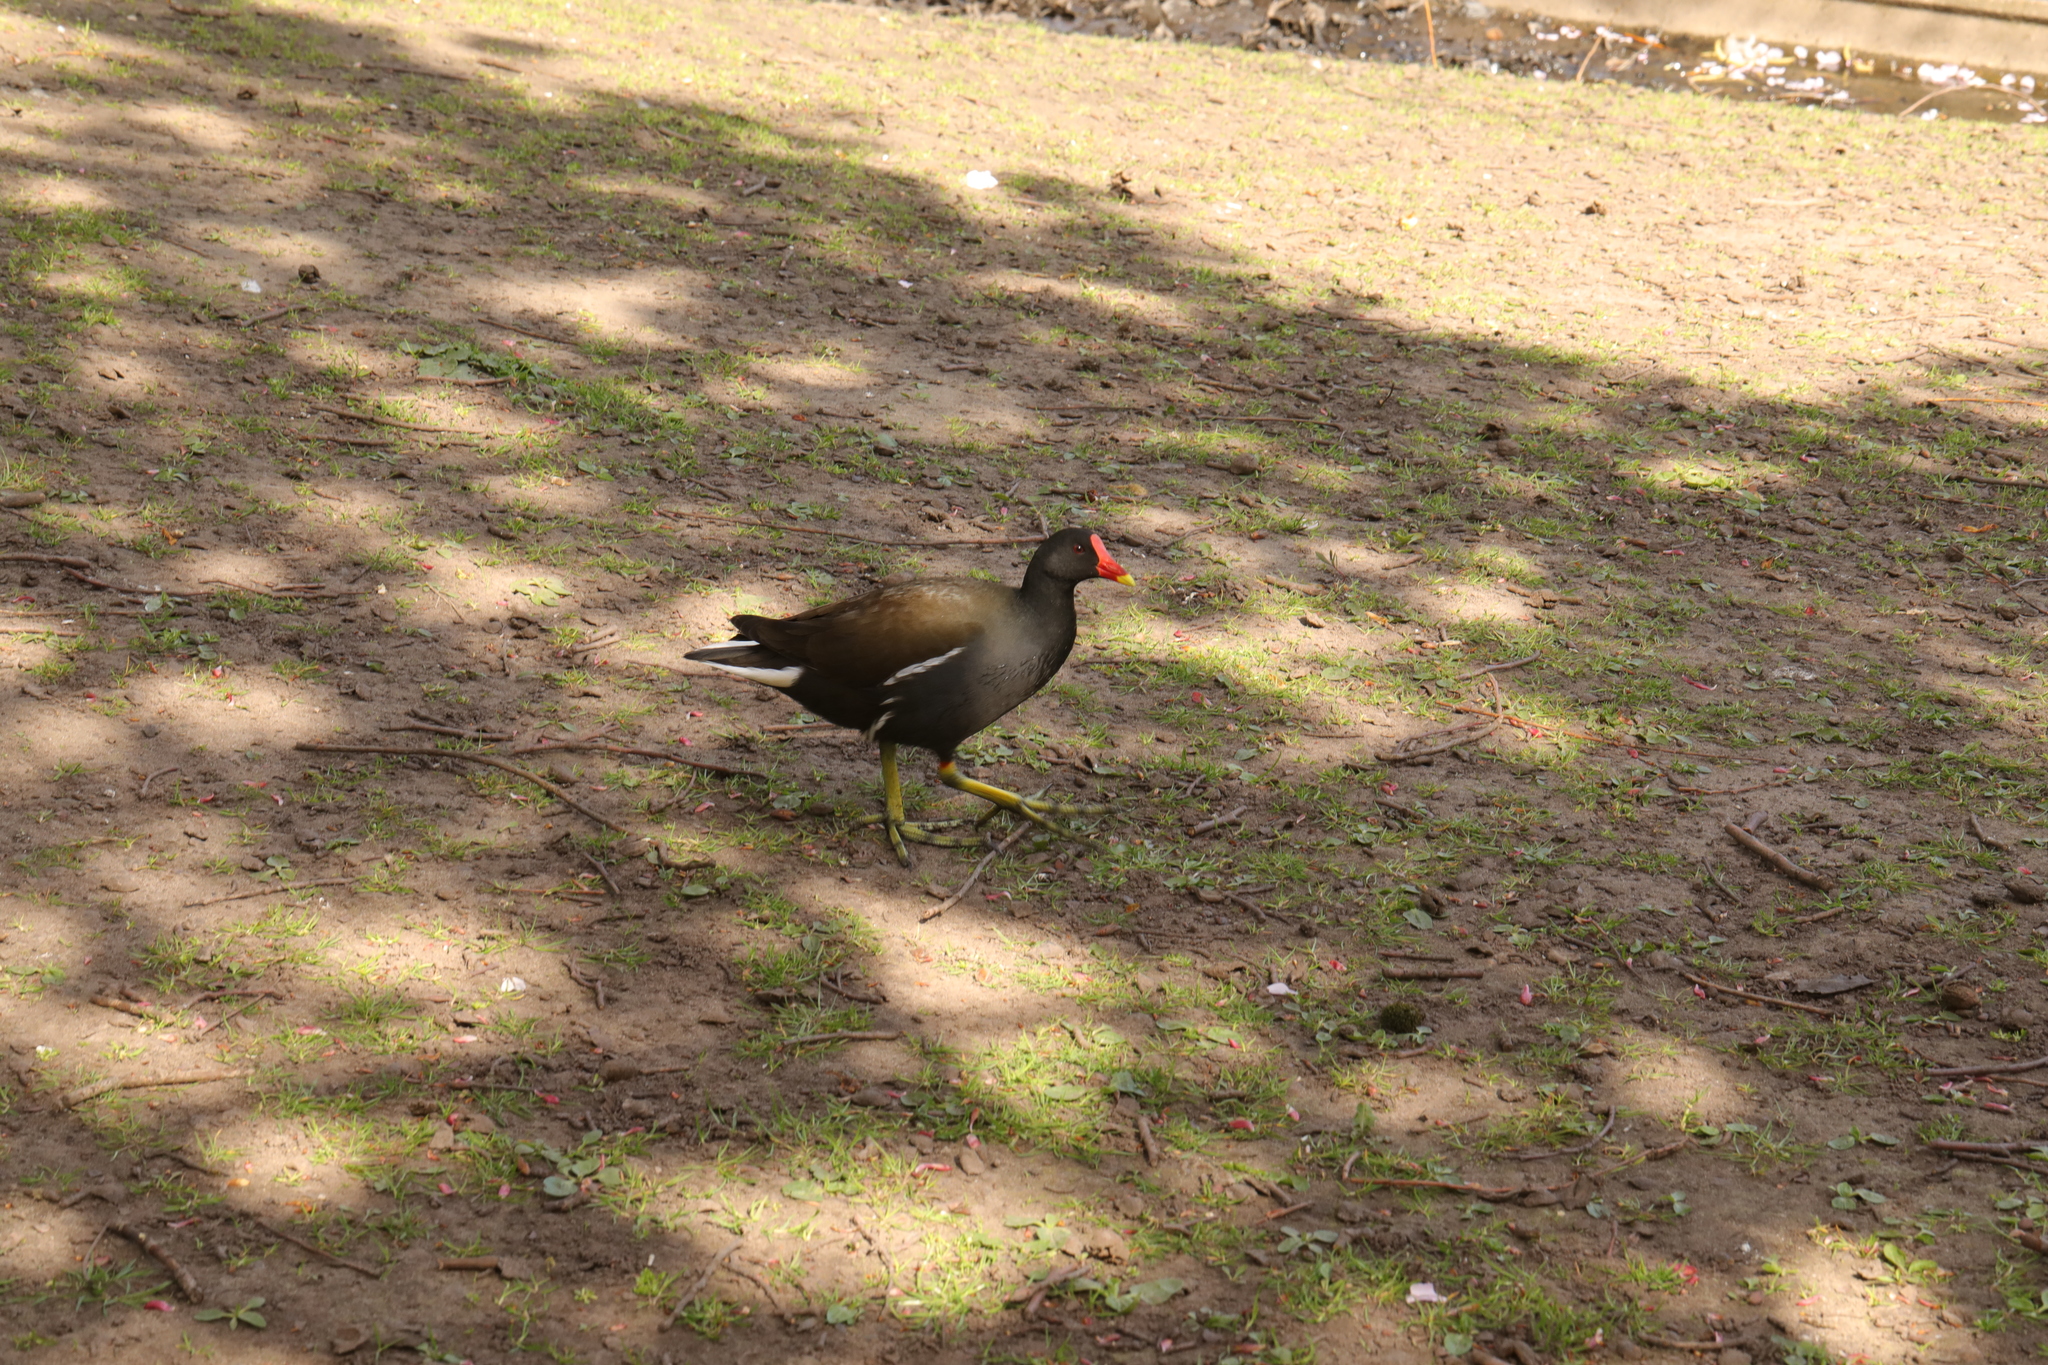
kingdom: Animalia
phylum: Chordata
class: Aves
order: Gruiformes
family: Rallidae
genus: Gallinula
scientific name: Gallinula chloropus
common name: Common moorhen
